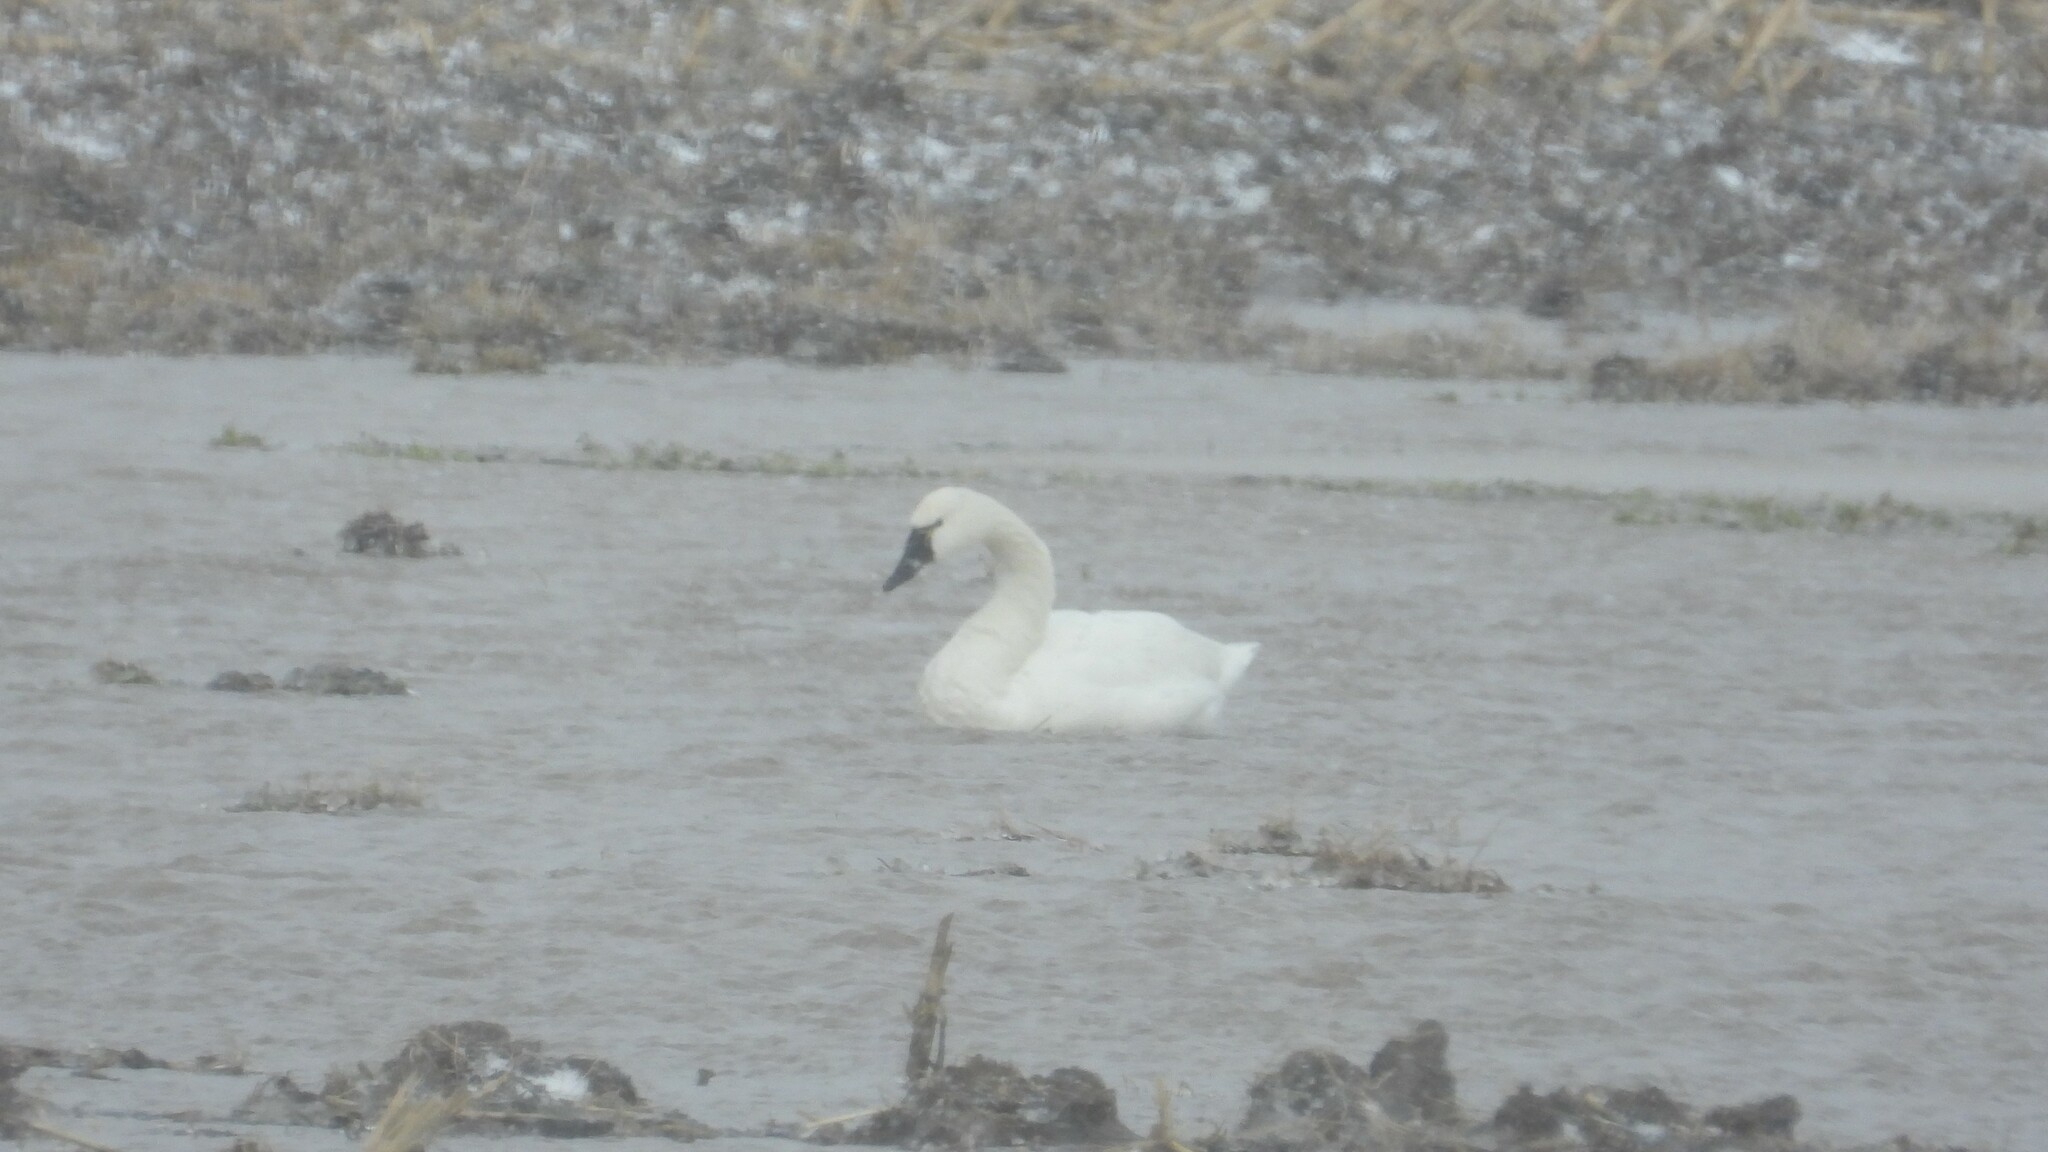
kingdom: Animalia
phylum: Chordata
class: Aves
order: Anseriformes
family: Anatidae
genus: Cygnus
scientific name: Cygnus columbianus
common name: Tundra swan
